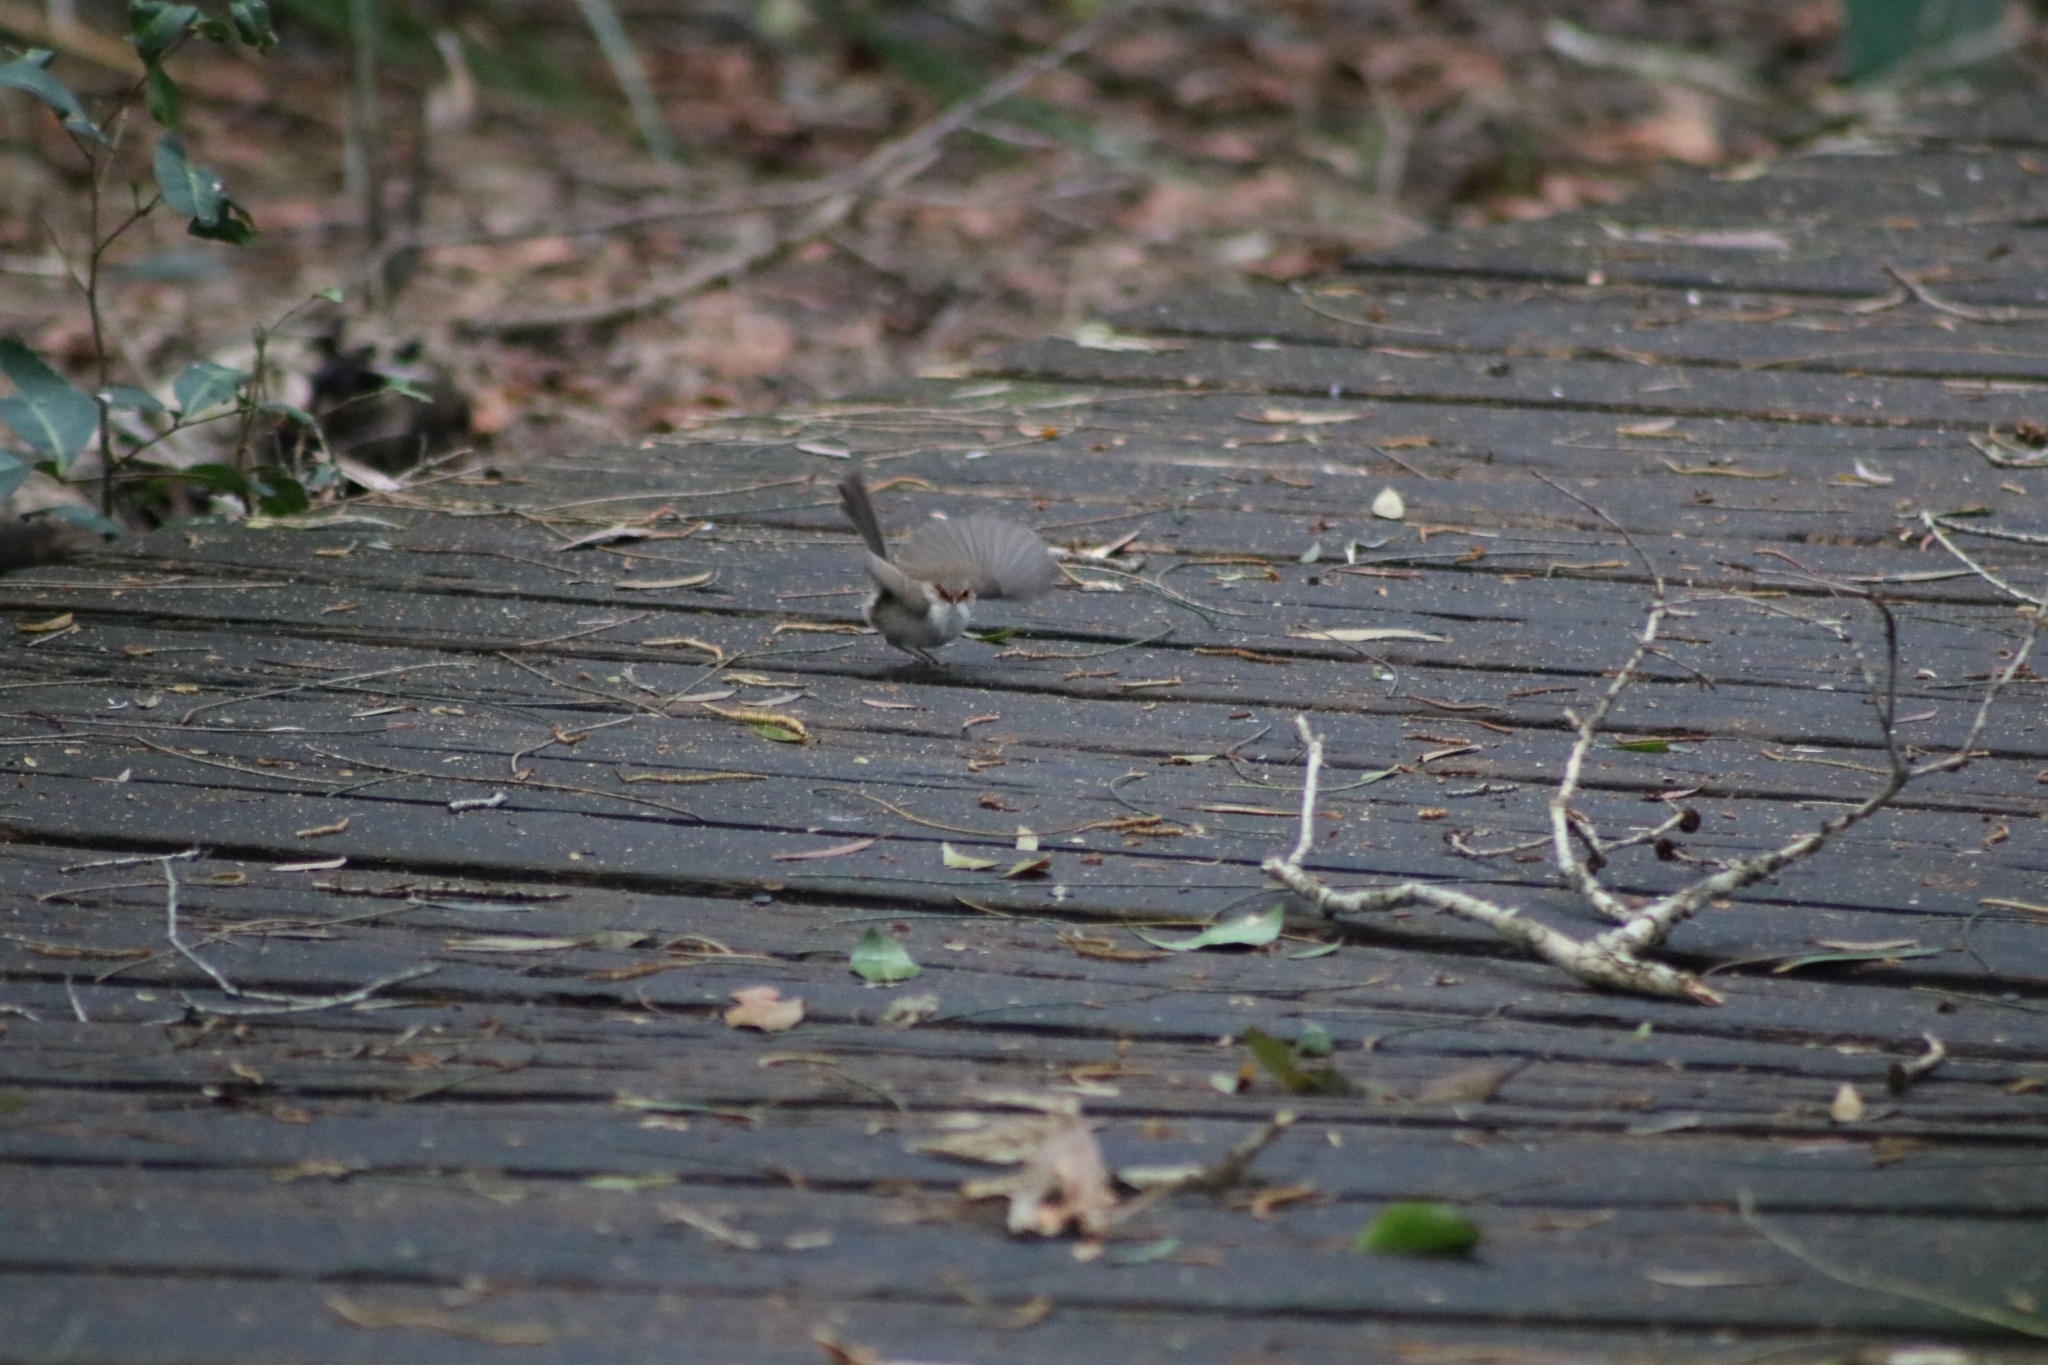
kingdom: Animalia
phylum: Chordata
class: Aves
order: Passeriformes
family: Maluridae
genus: Malurus
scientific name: Malurus cyaneus
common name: Superb fairywren
